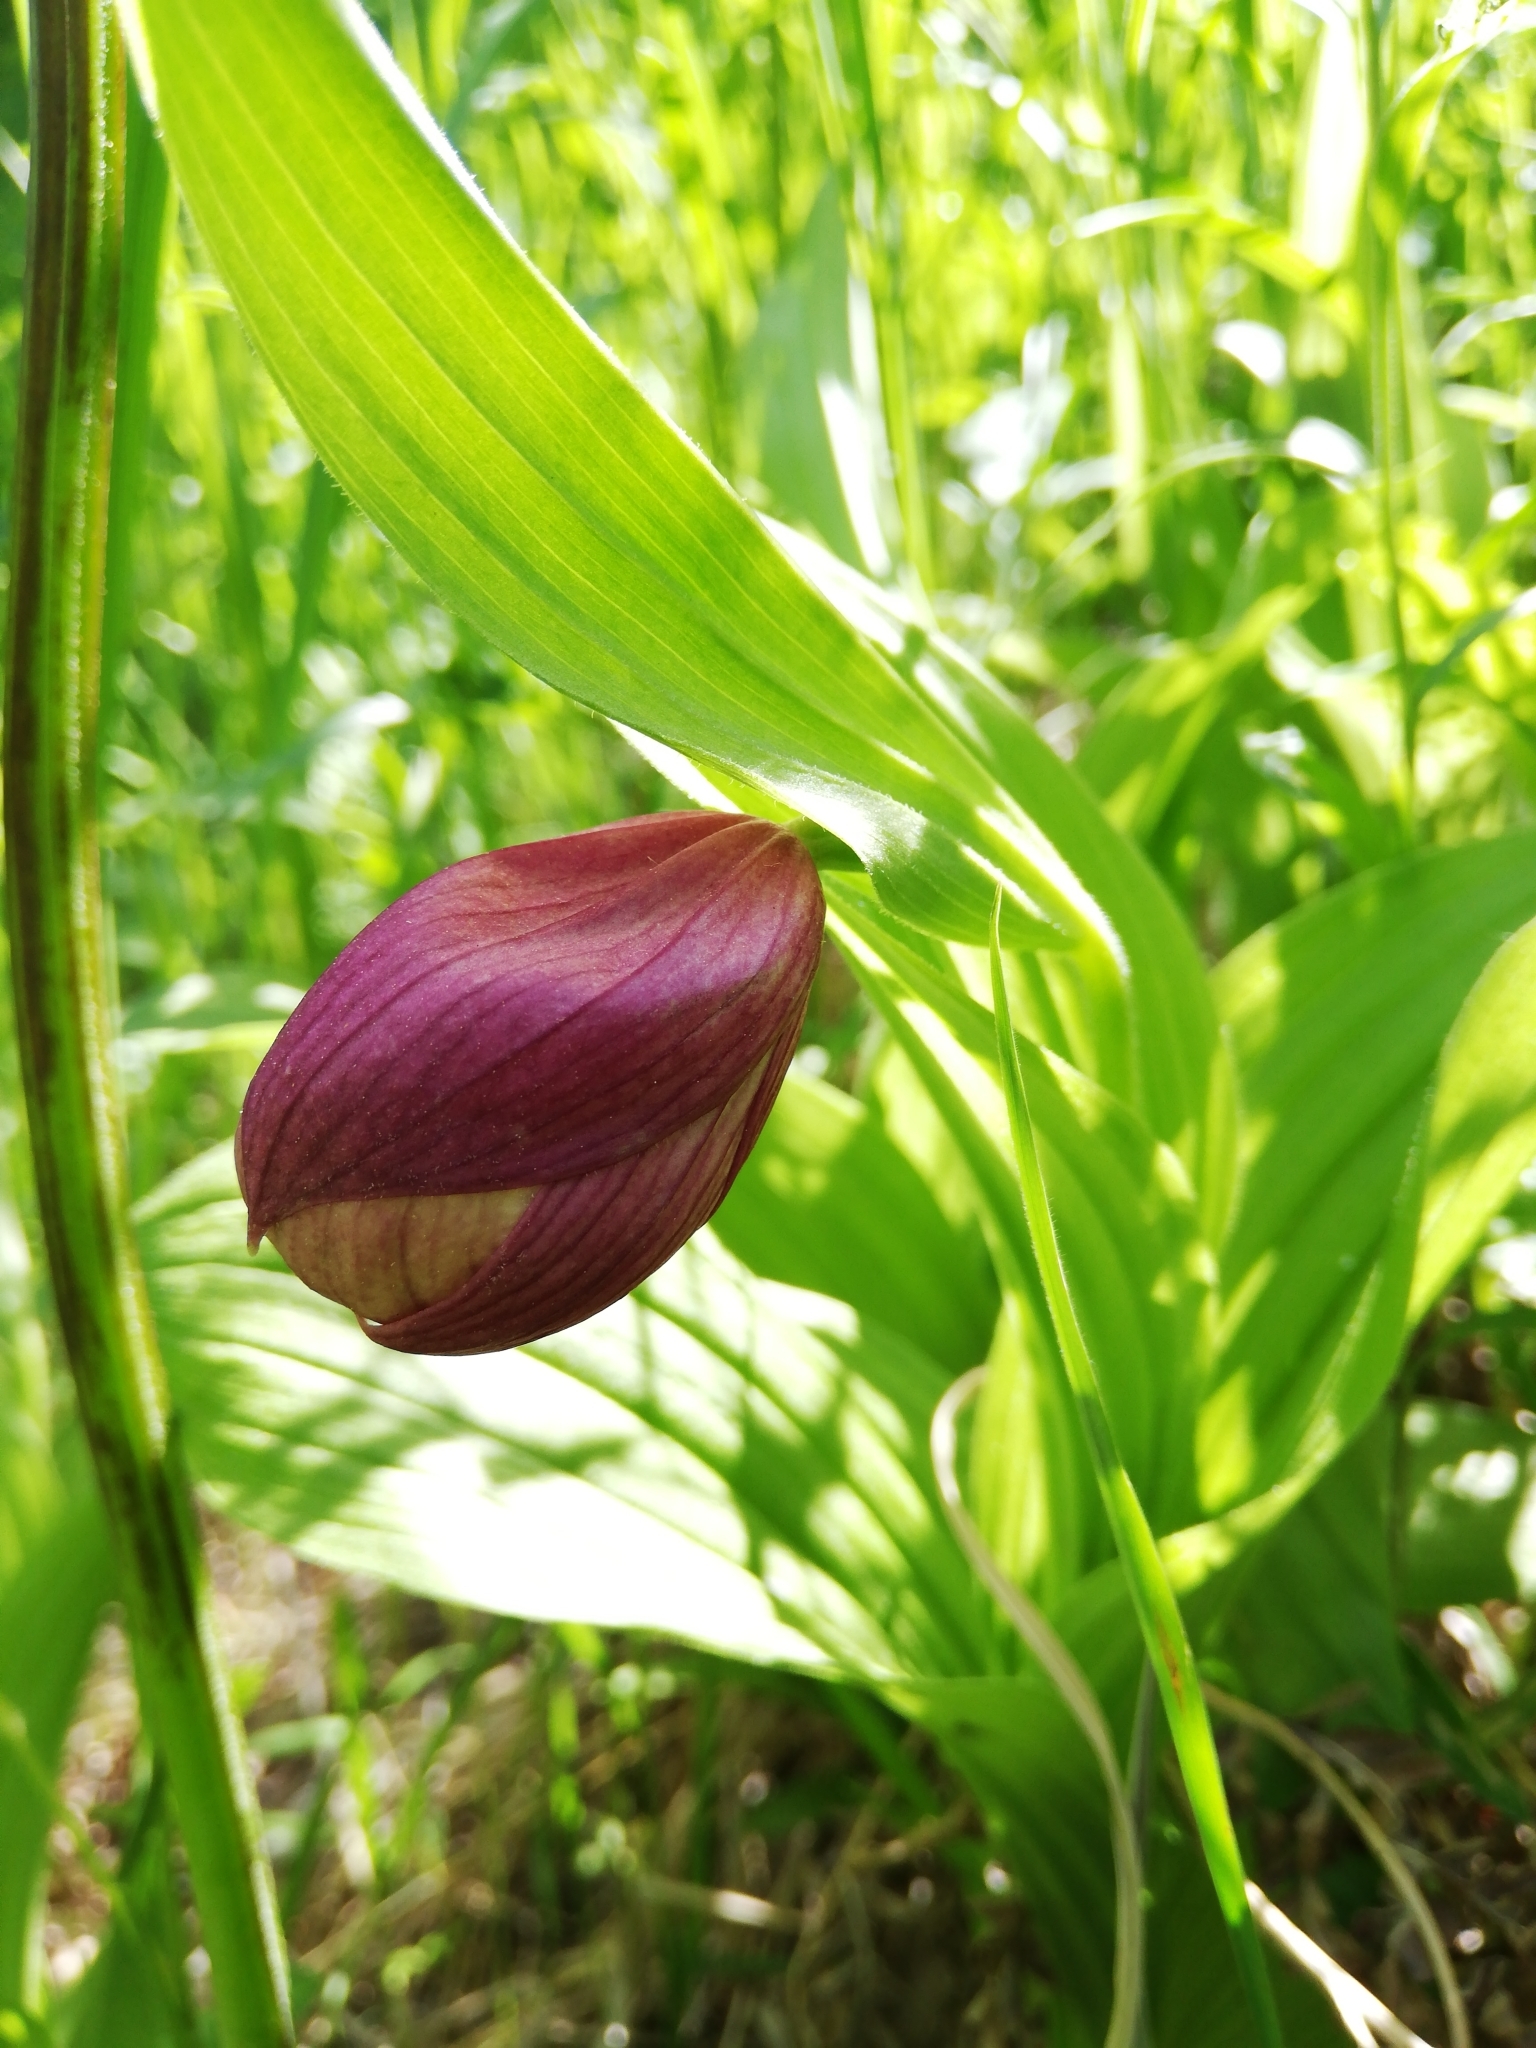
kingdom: Plantae
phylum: Tracheophyta
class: Liliopsida
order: Asparagales
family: Orchidaceae
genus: Cypripedium
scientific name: Cypripedium macranthos
